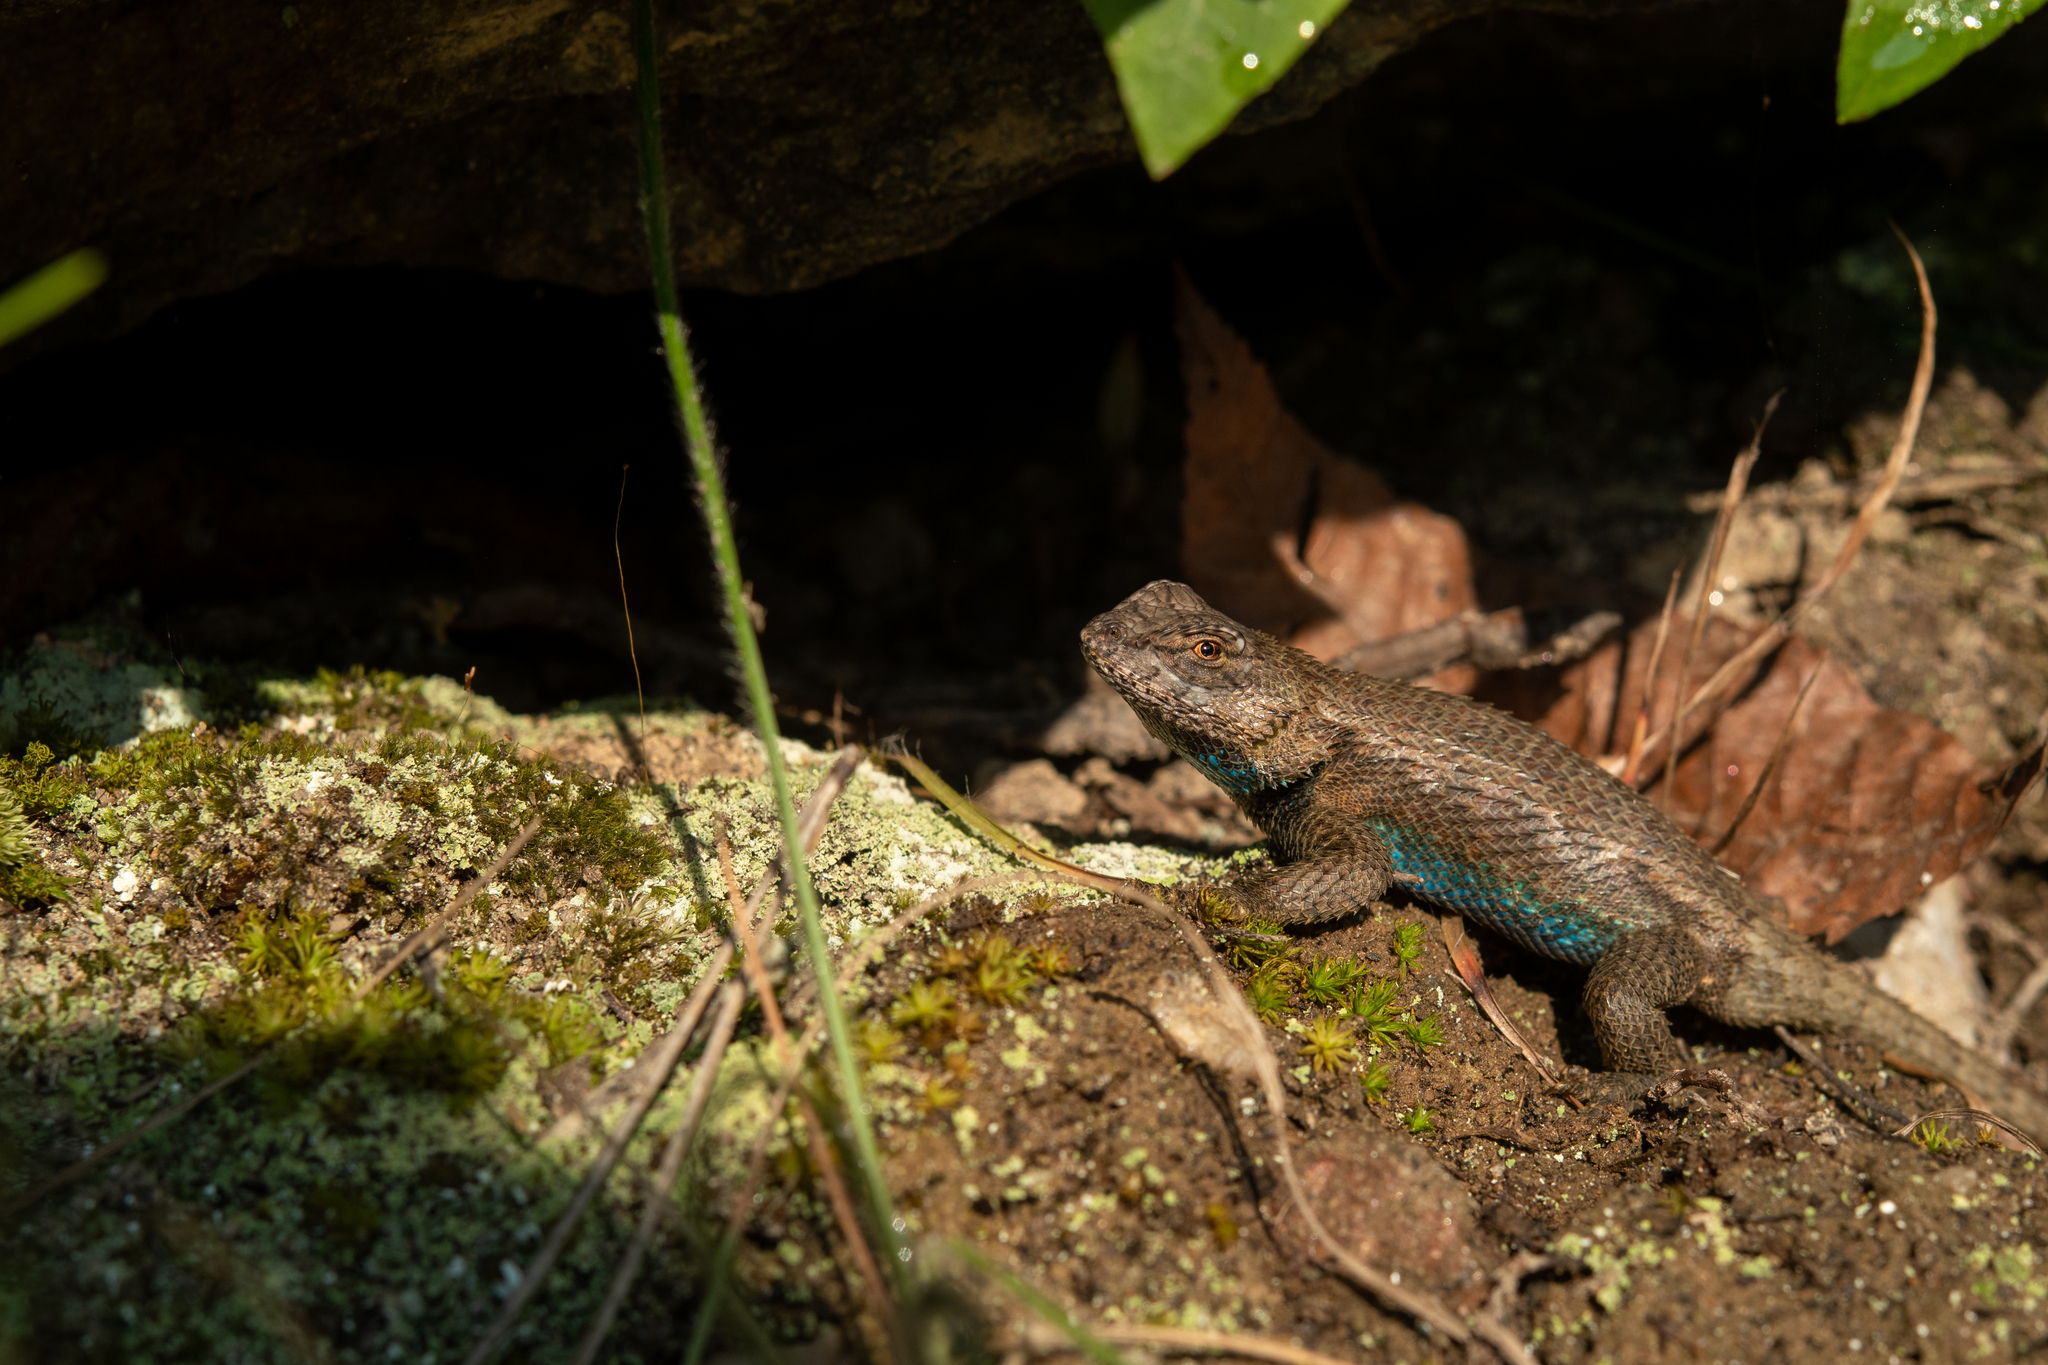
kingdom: Animalia
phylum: Chordata
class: Squamata
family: Phrynosomatidae
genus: Sceloporus
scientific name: Sceloporus undulatus
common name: Eastern fence lizard
